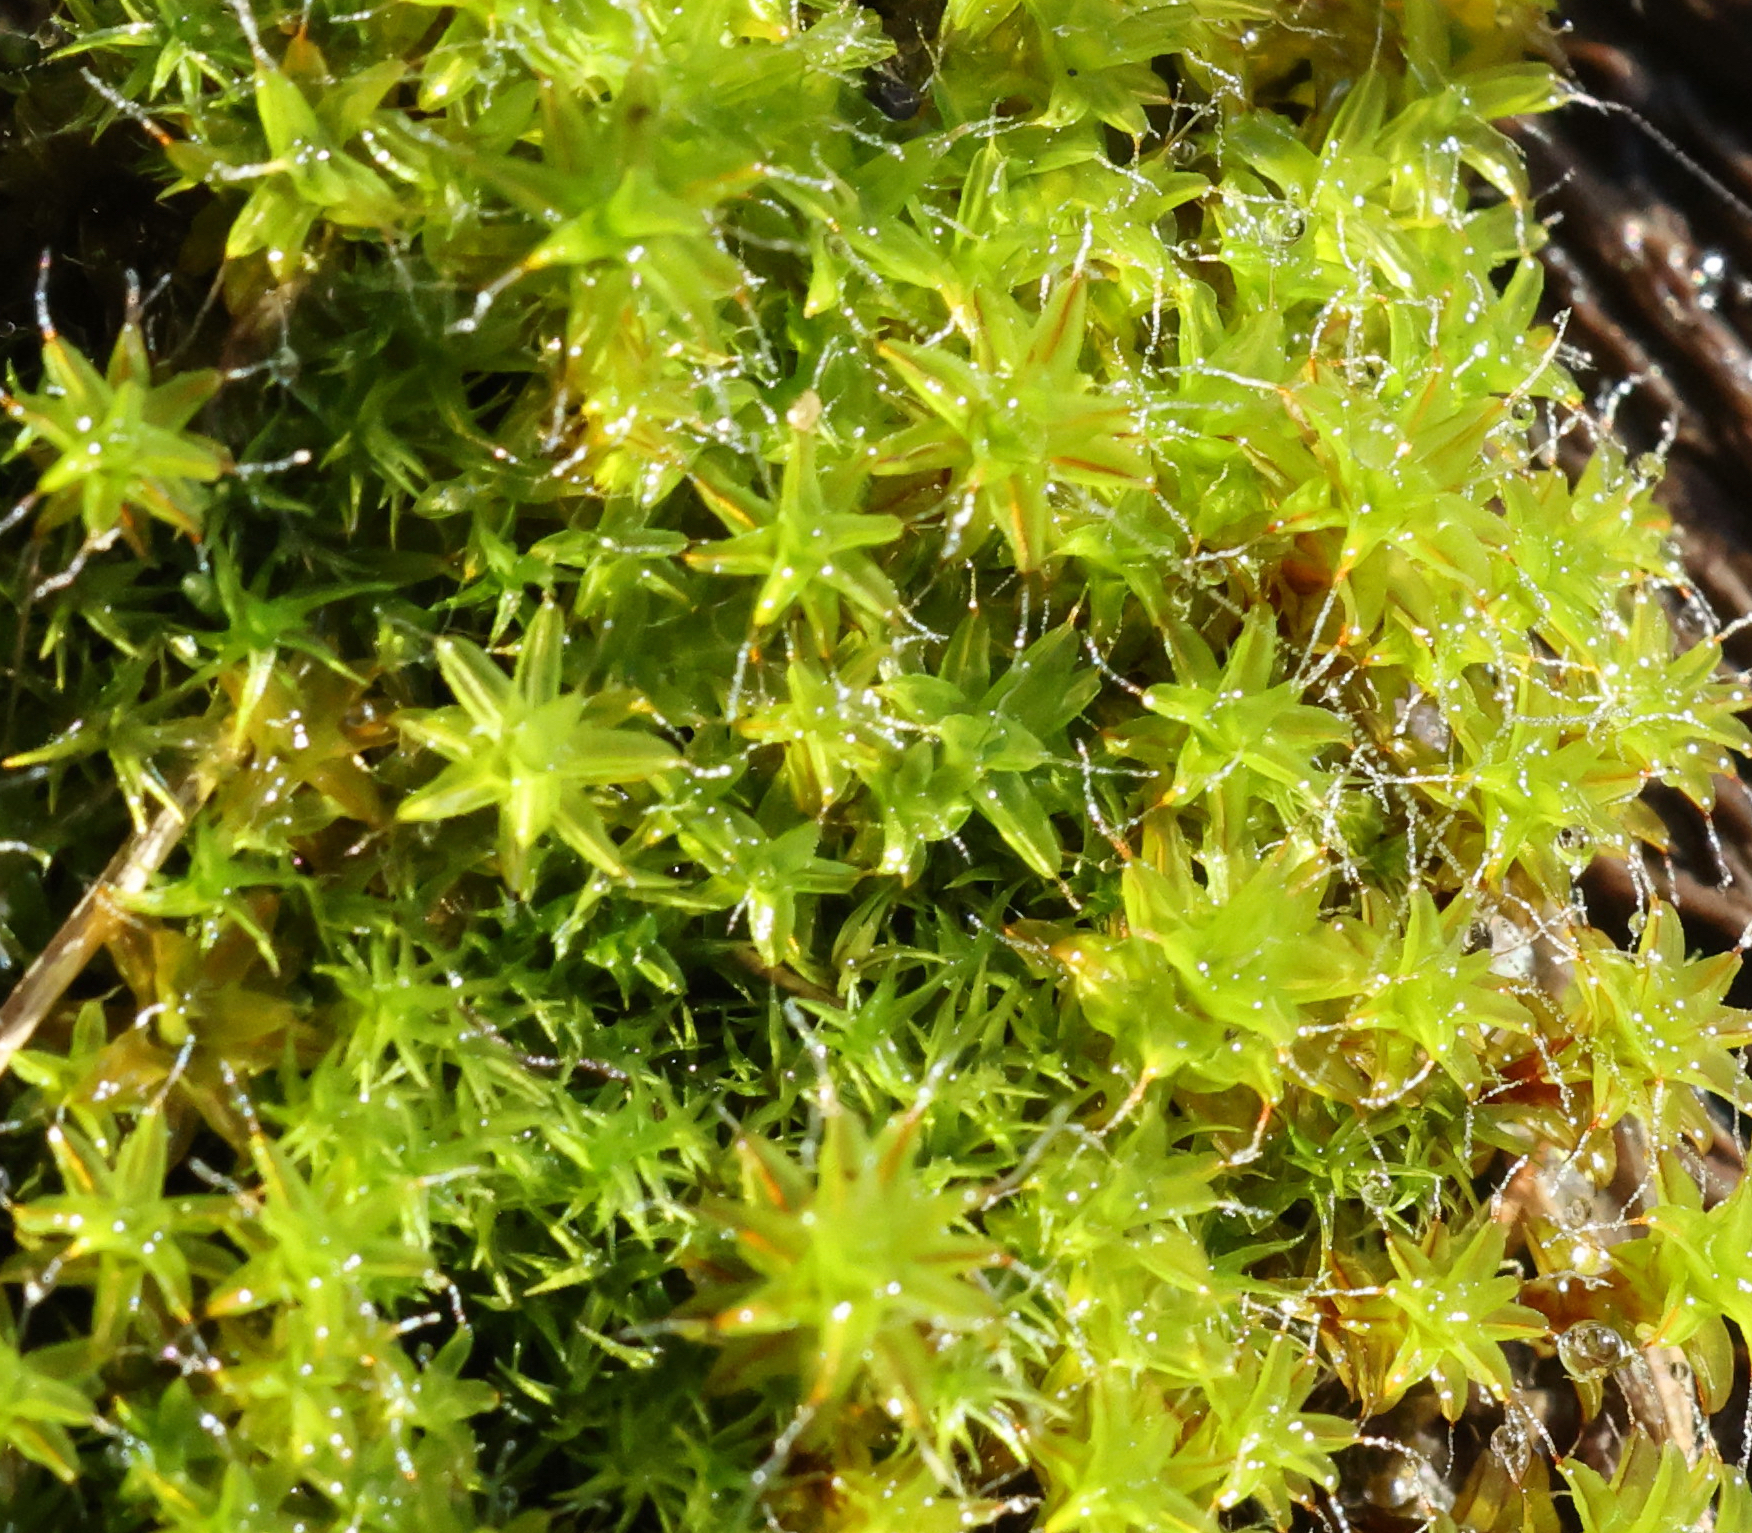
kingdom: Plantae
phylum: Bryophyta
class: Bryopsida
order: Pottiales
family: Pottiaceae
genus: Syntrichia
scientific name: Syntrichia ruralis
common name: Sidewalk screw moss
